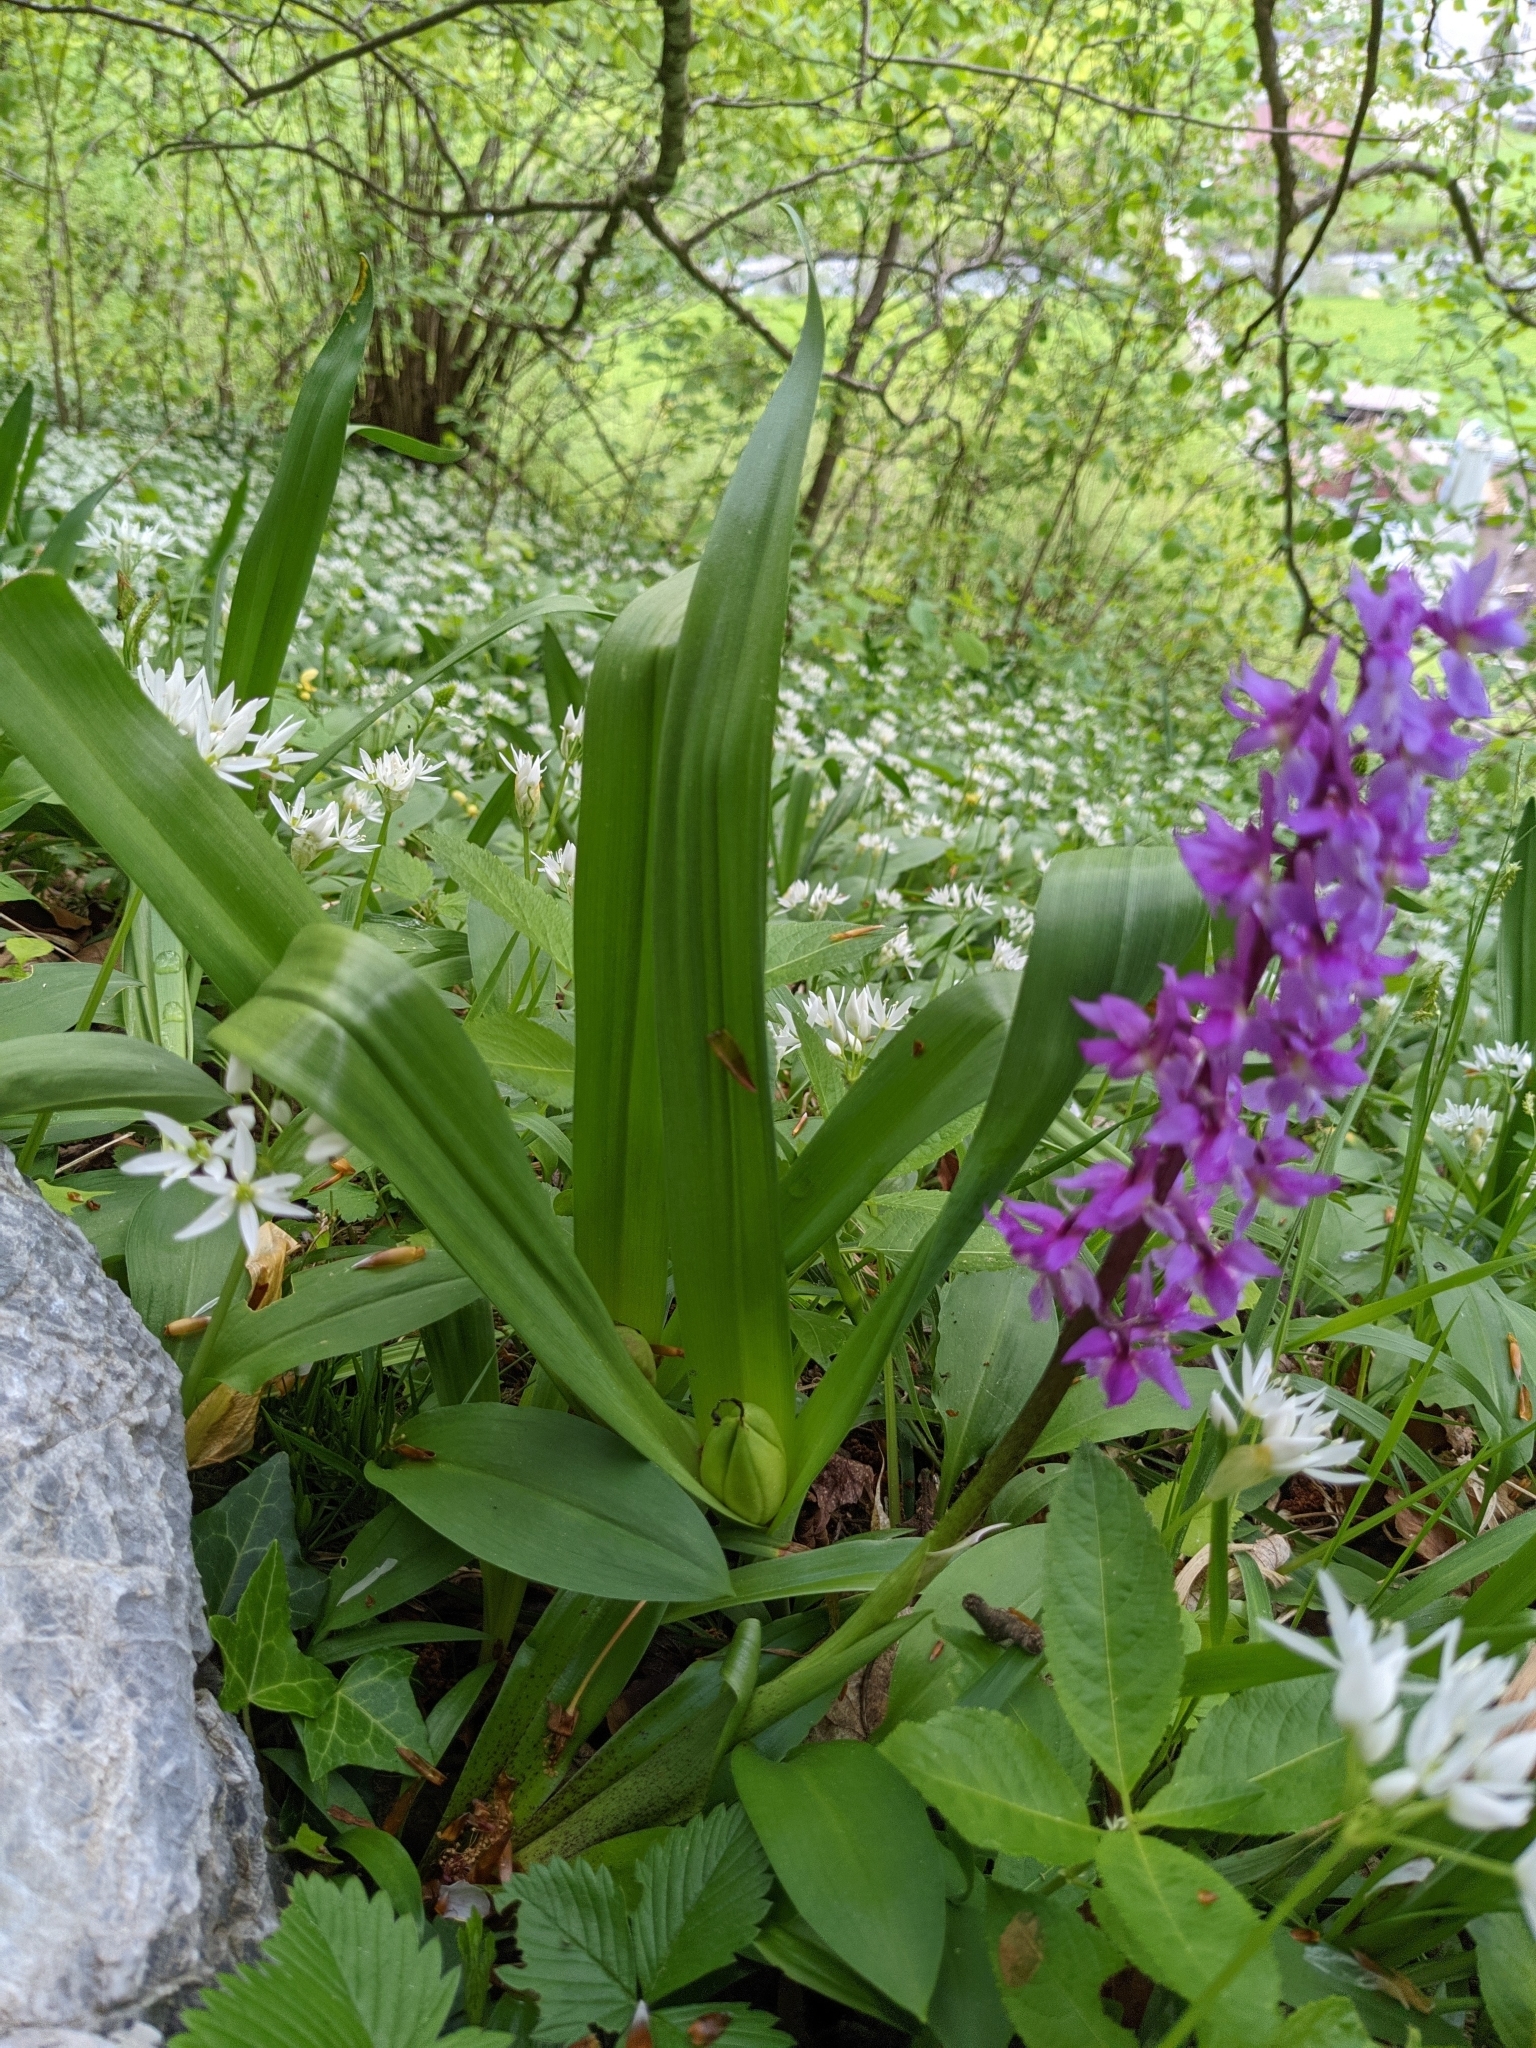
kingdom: Plantae
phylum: Tracheophyta
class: Liliopsida
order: Liliales
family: Colchicaceae
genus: Colchicum
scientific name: Colchicum autumnale
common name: Autumn crocus
